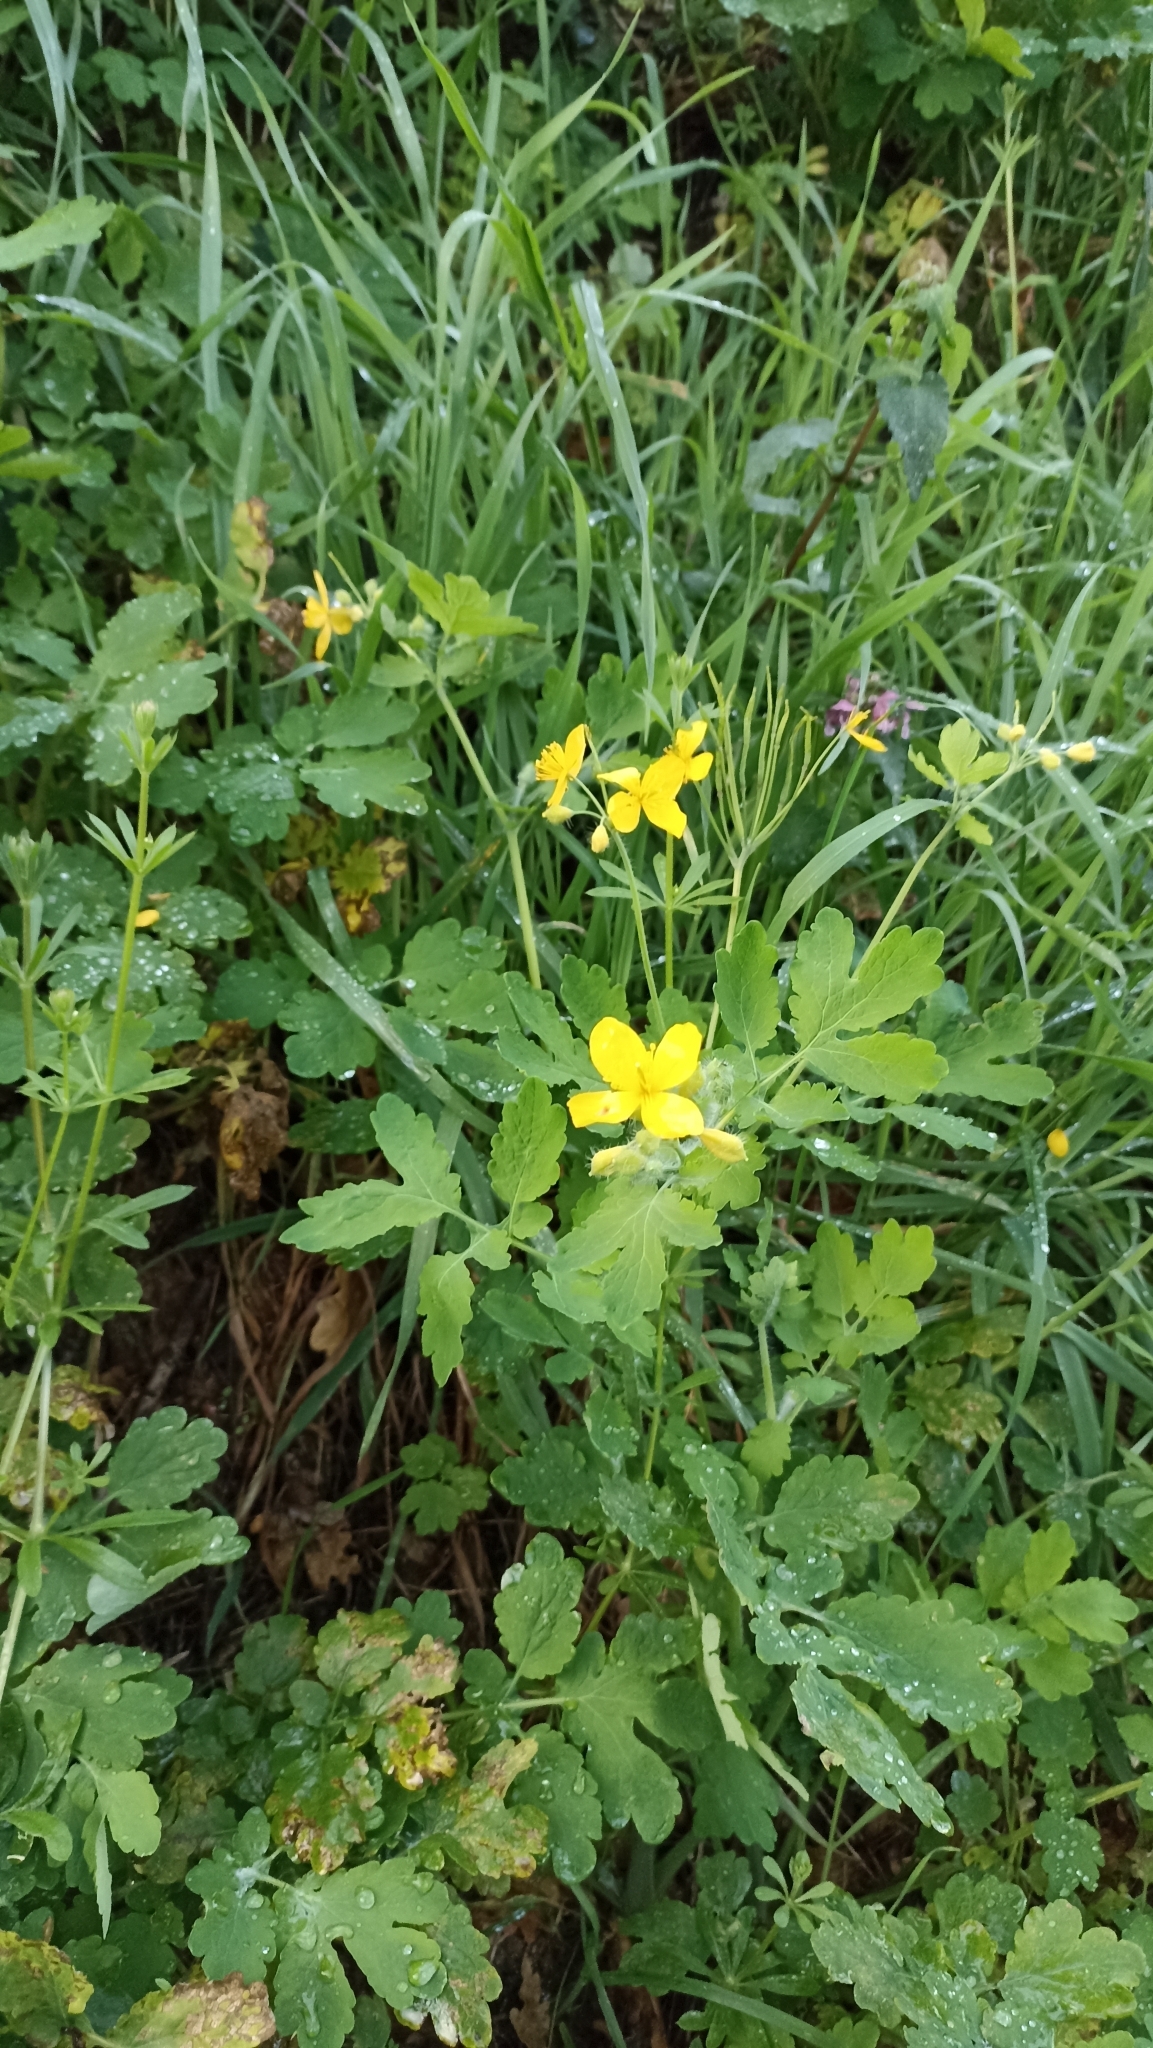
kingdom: Plantae
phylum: Tracheophyta
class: Magnoliopsida
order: Ranunculales
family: Papaveraceae
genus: Chelidonium
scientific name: Chelidonium majus
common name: Greater celandine
